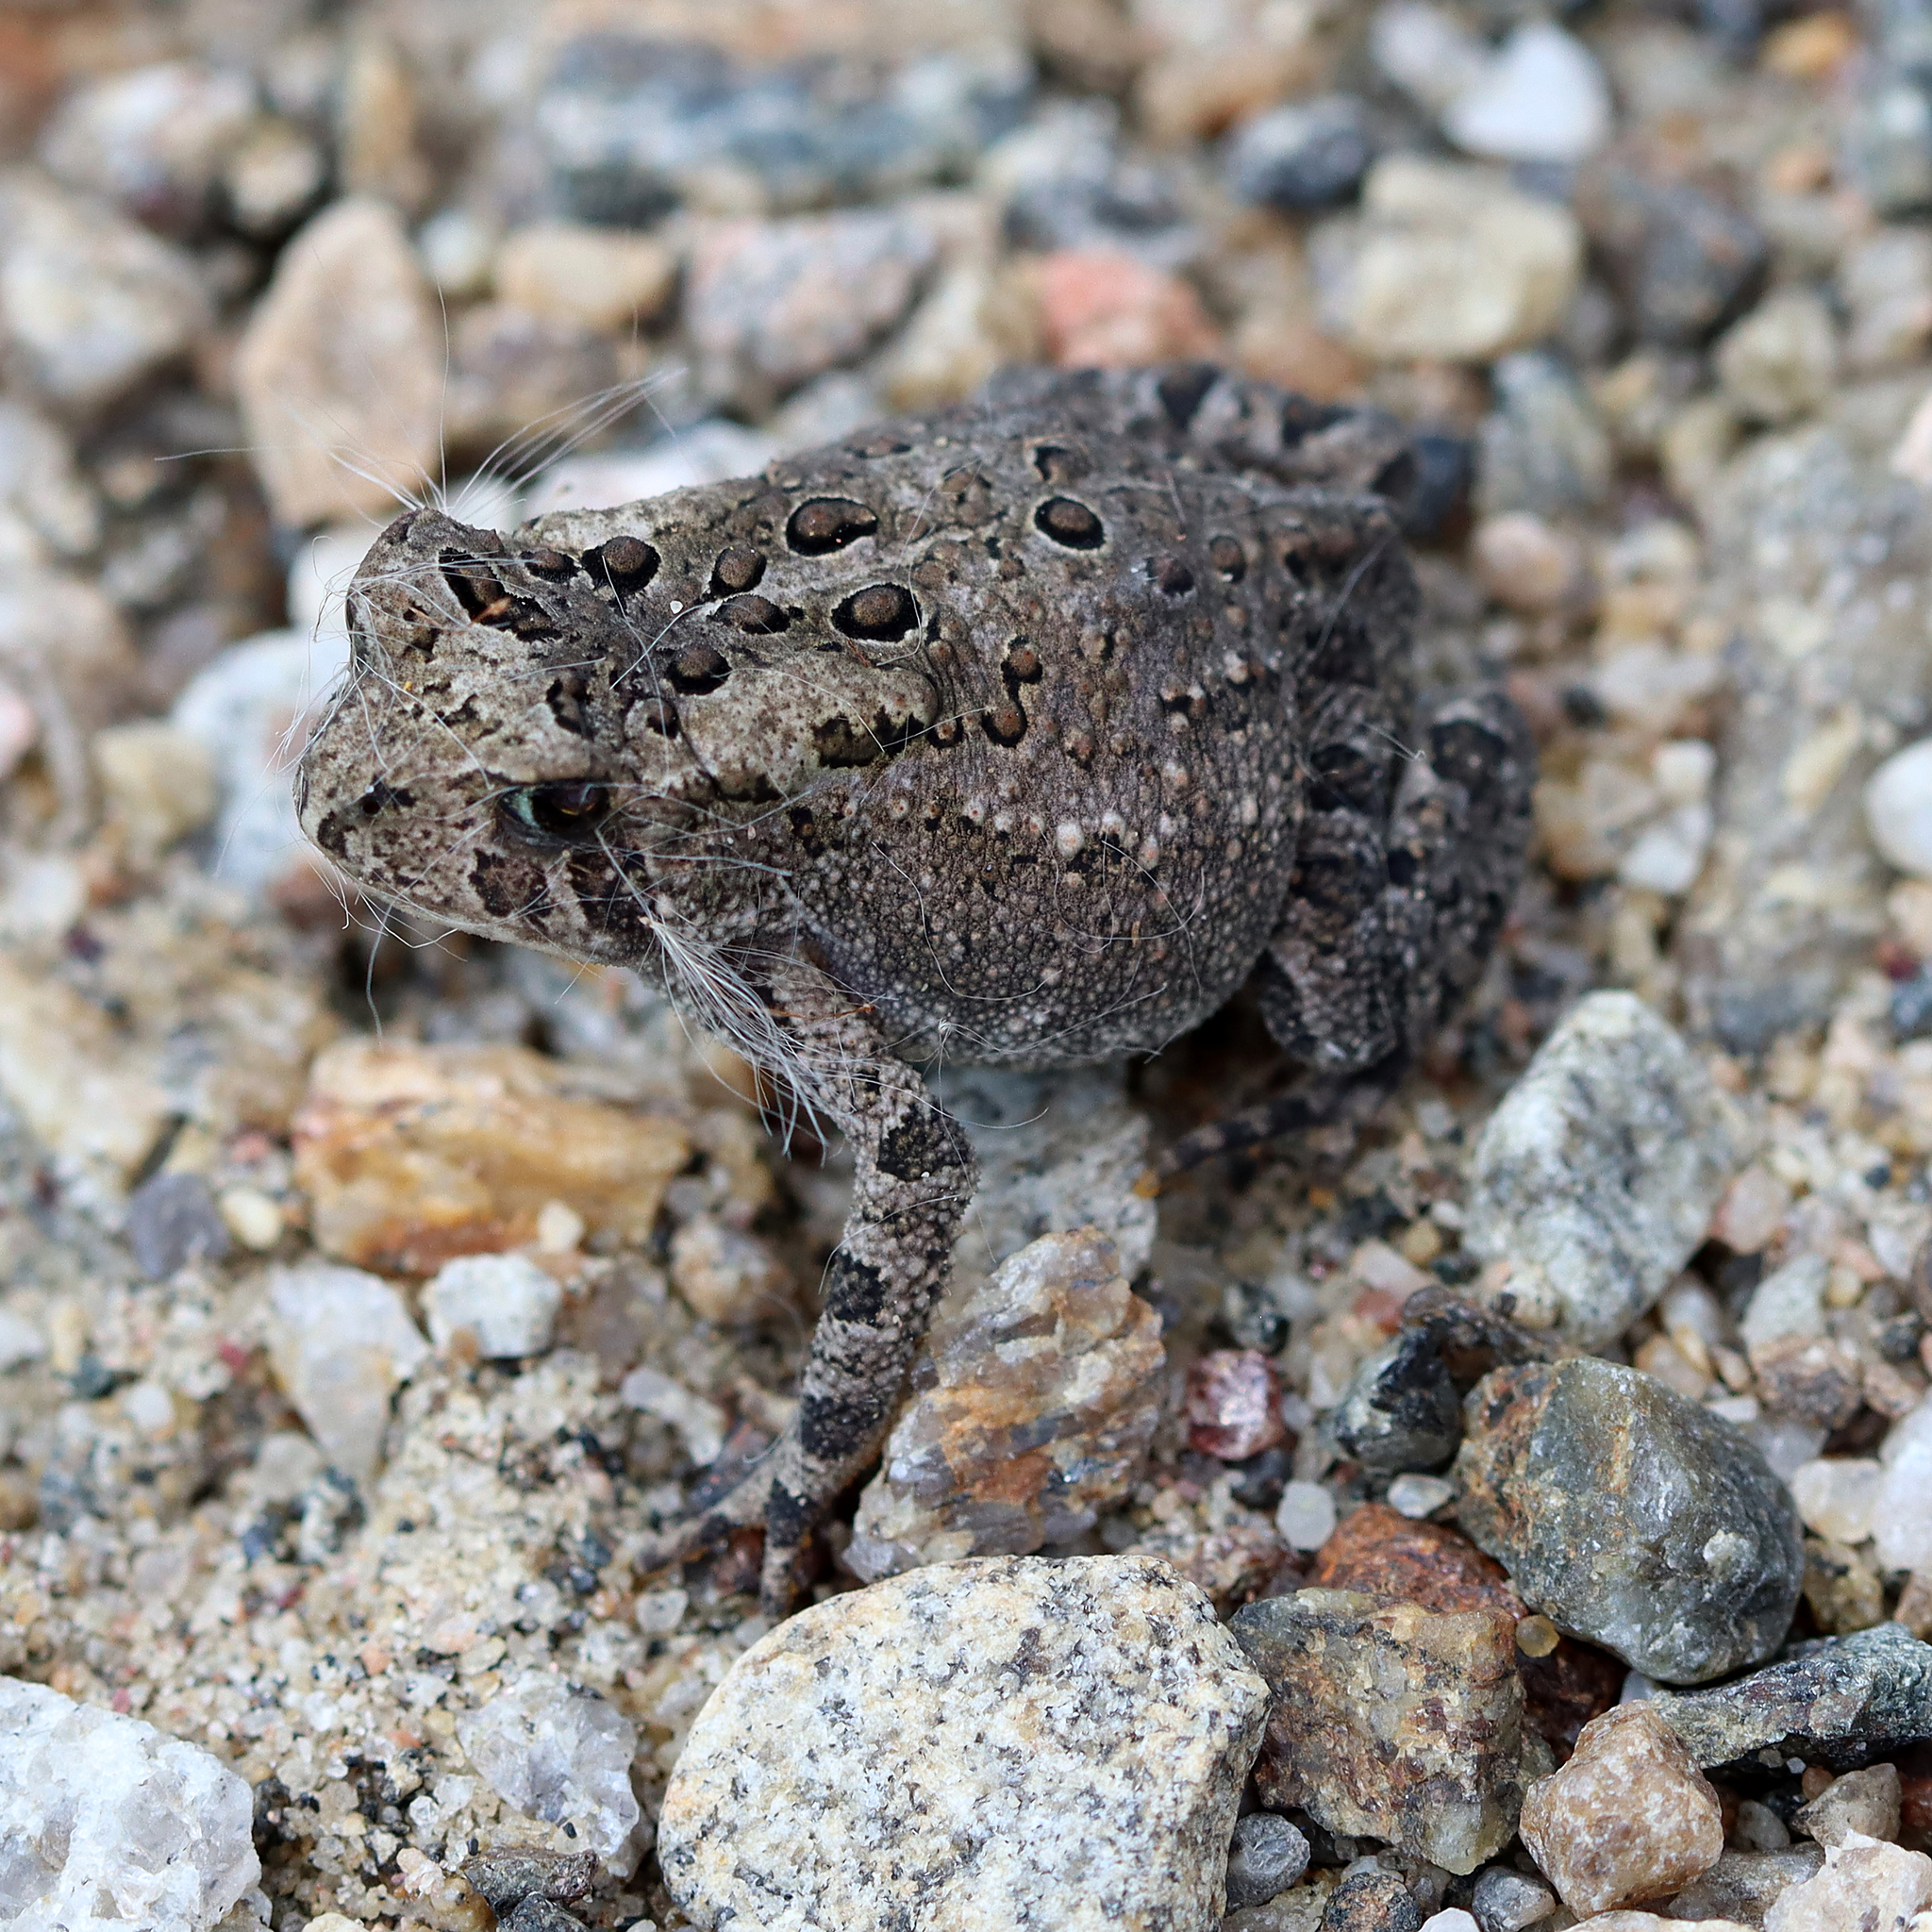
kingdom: Animalia
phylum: Chordata
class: Amphibia
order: Anura
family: Bufonidae
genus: Anaxyrus
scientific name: Anaxyrus americanus
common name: American toad
